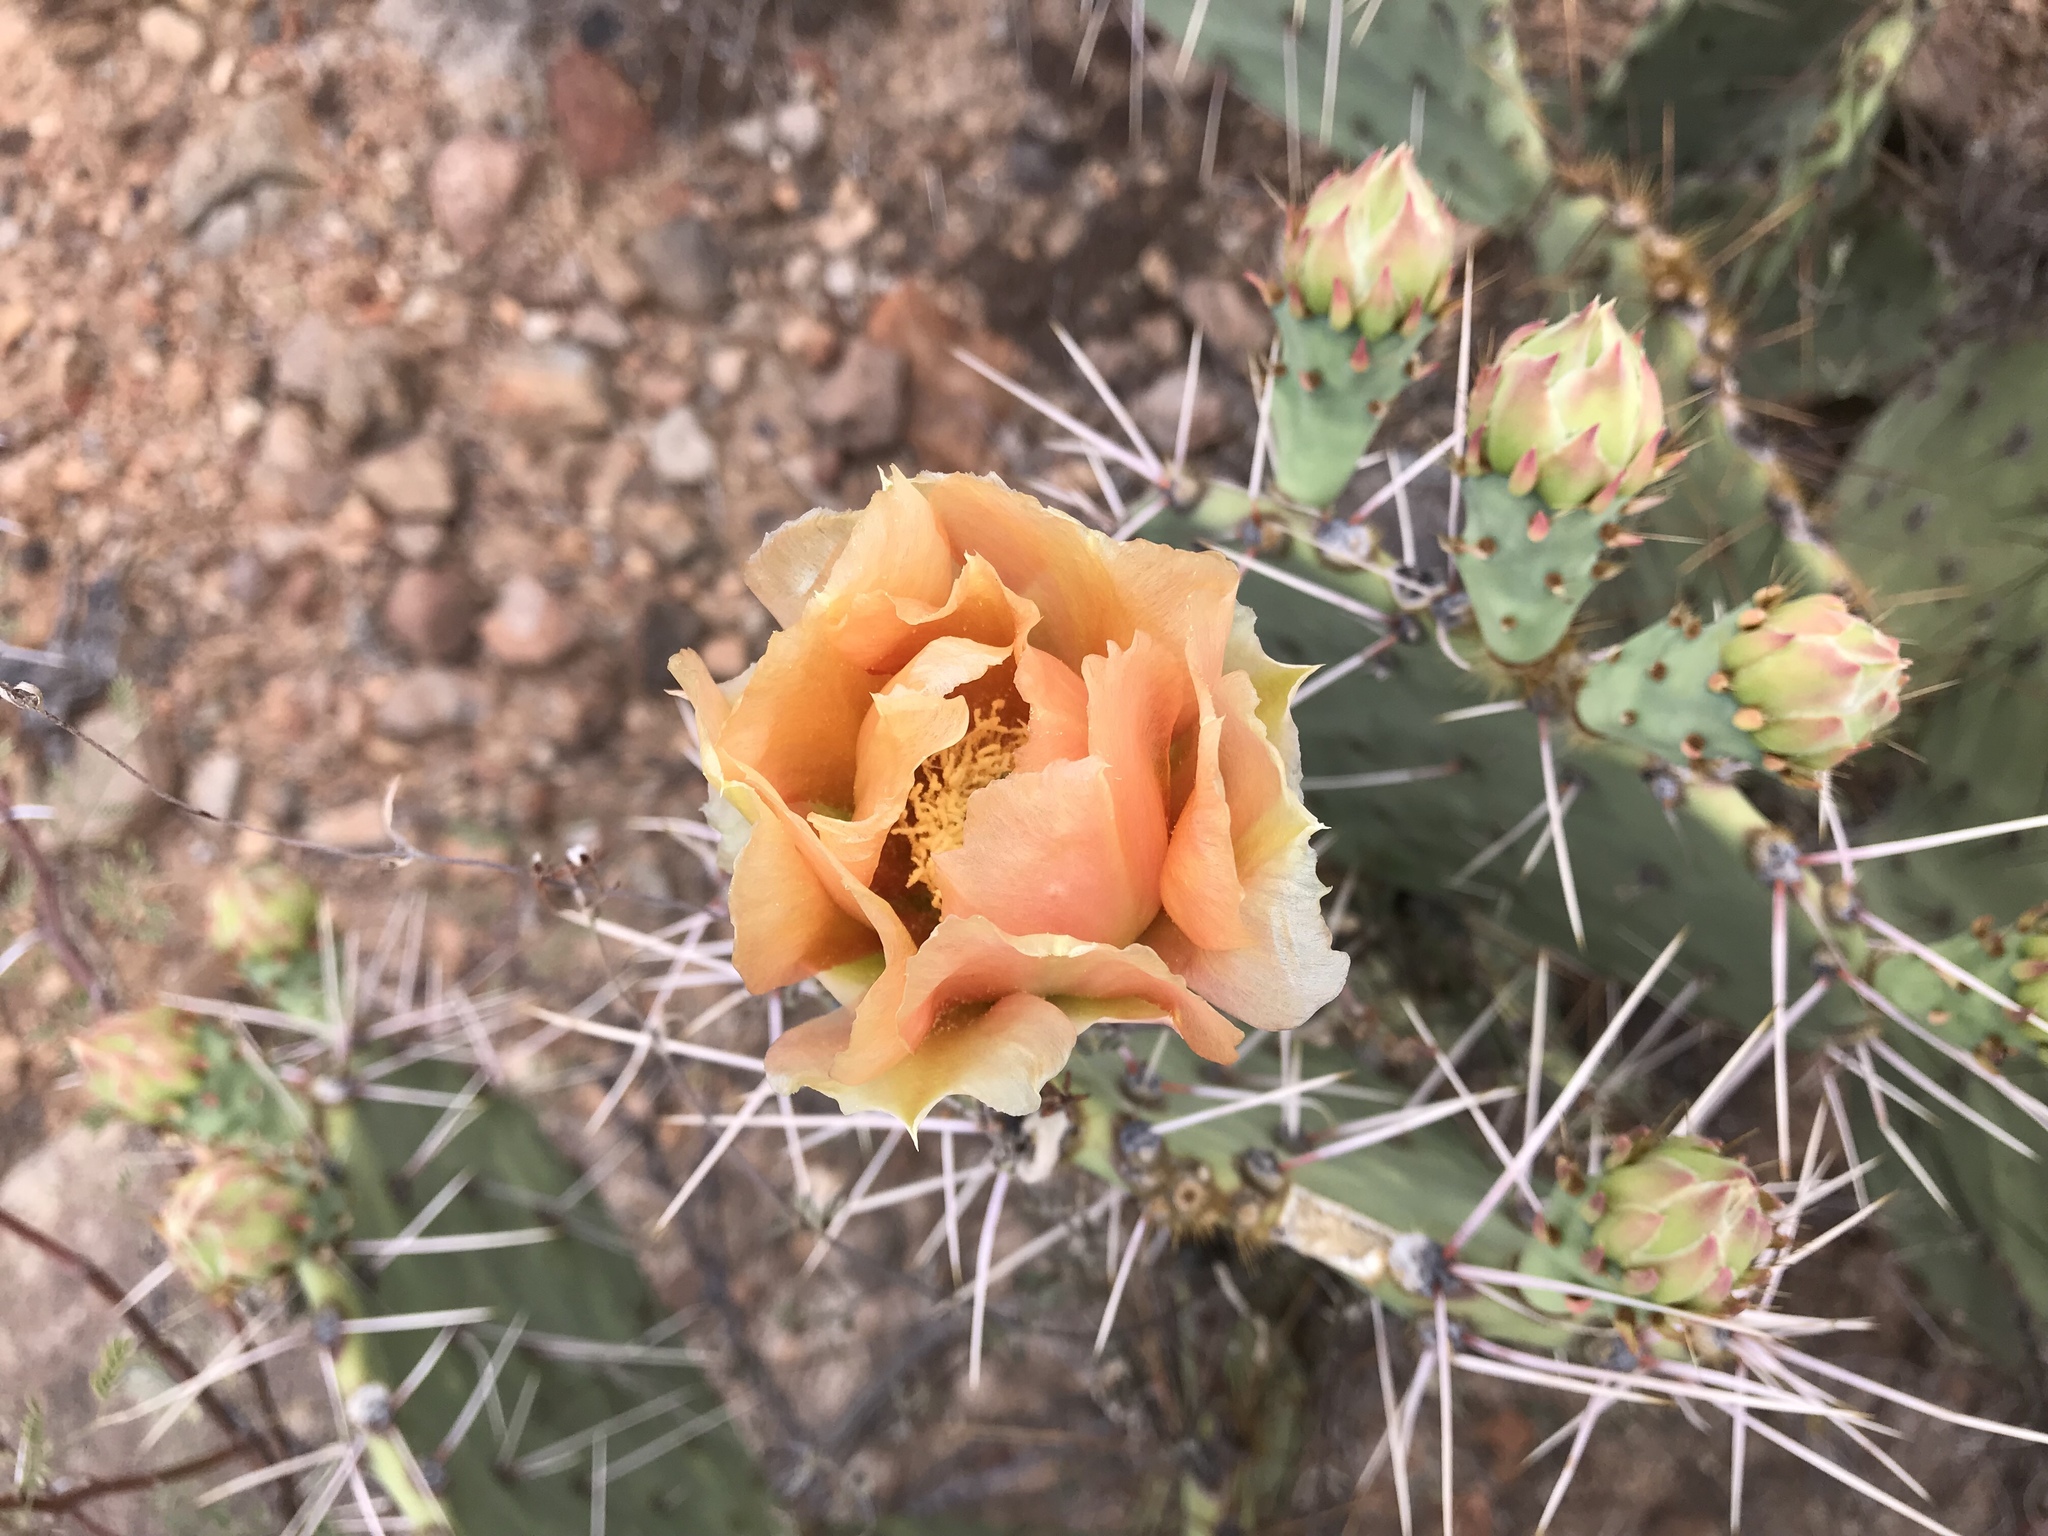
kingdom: Plantae
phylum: Tracheophyta
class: Magnoliopsida
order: Caryophyllales
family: Cactaceae
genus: Opuntia
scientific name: Opuntia engelmannii
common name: Cactus-apple
